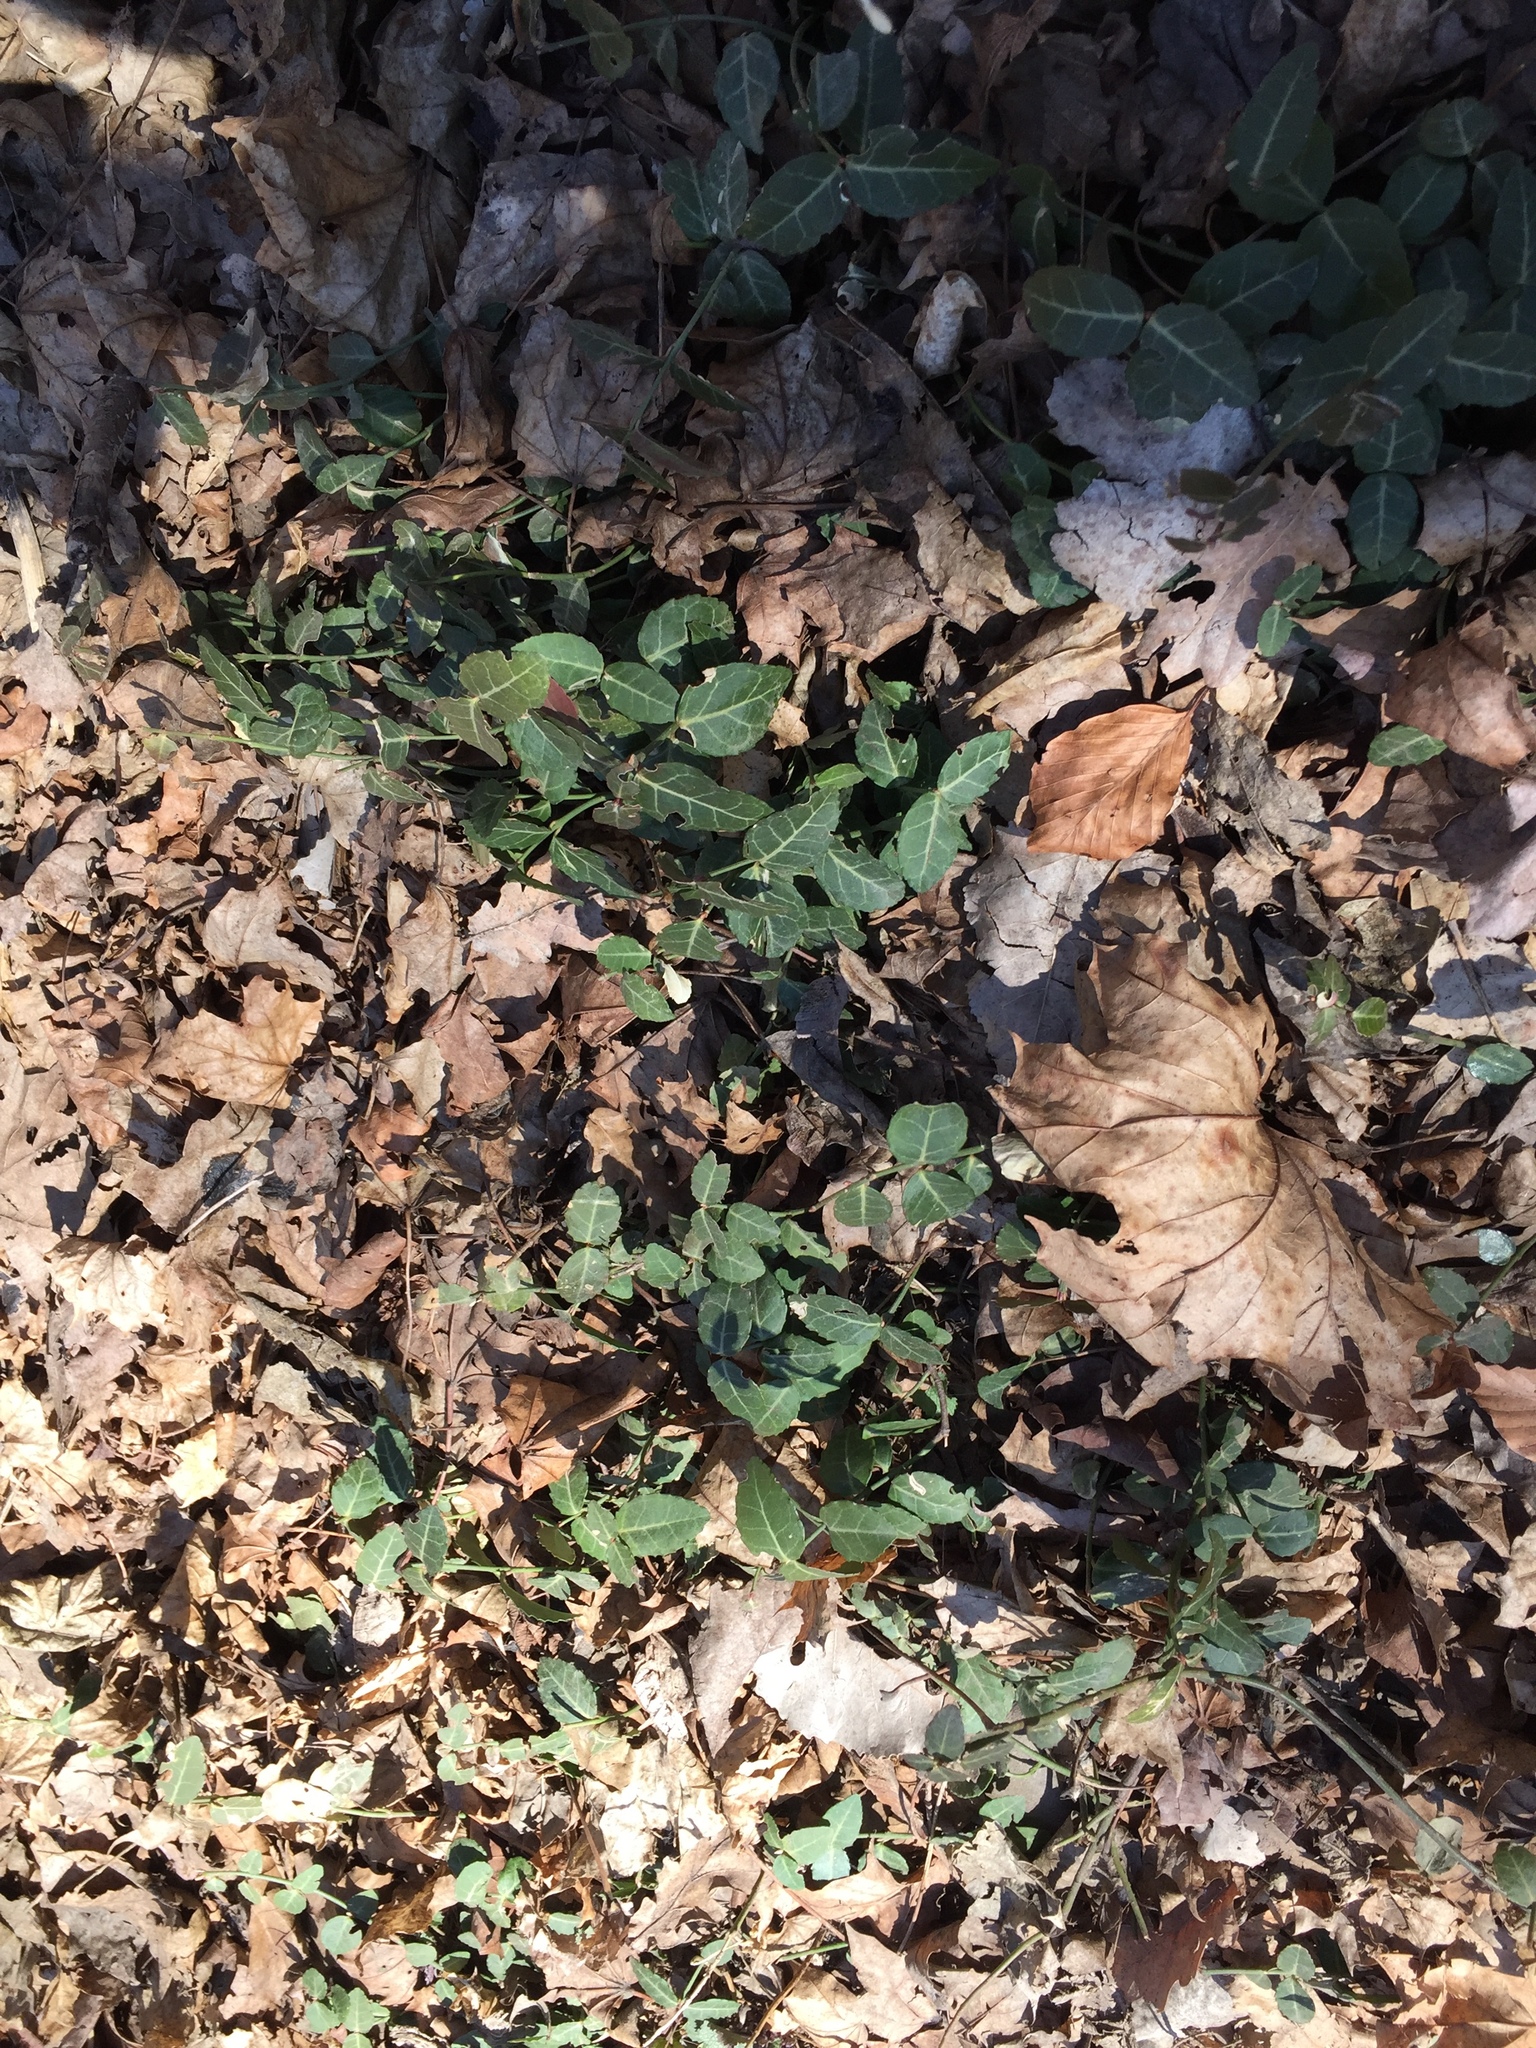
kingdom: Plantae
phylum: Tracheophyta
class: Magnoliopsida
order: Celastrales
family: Celastraceae
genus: Euonymus
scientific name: Euonymus fortunei
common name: Climbing euonymus
